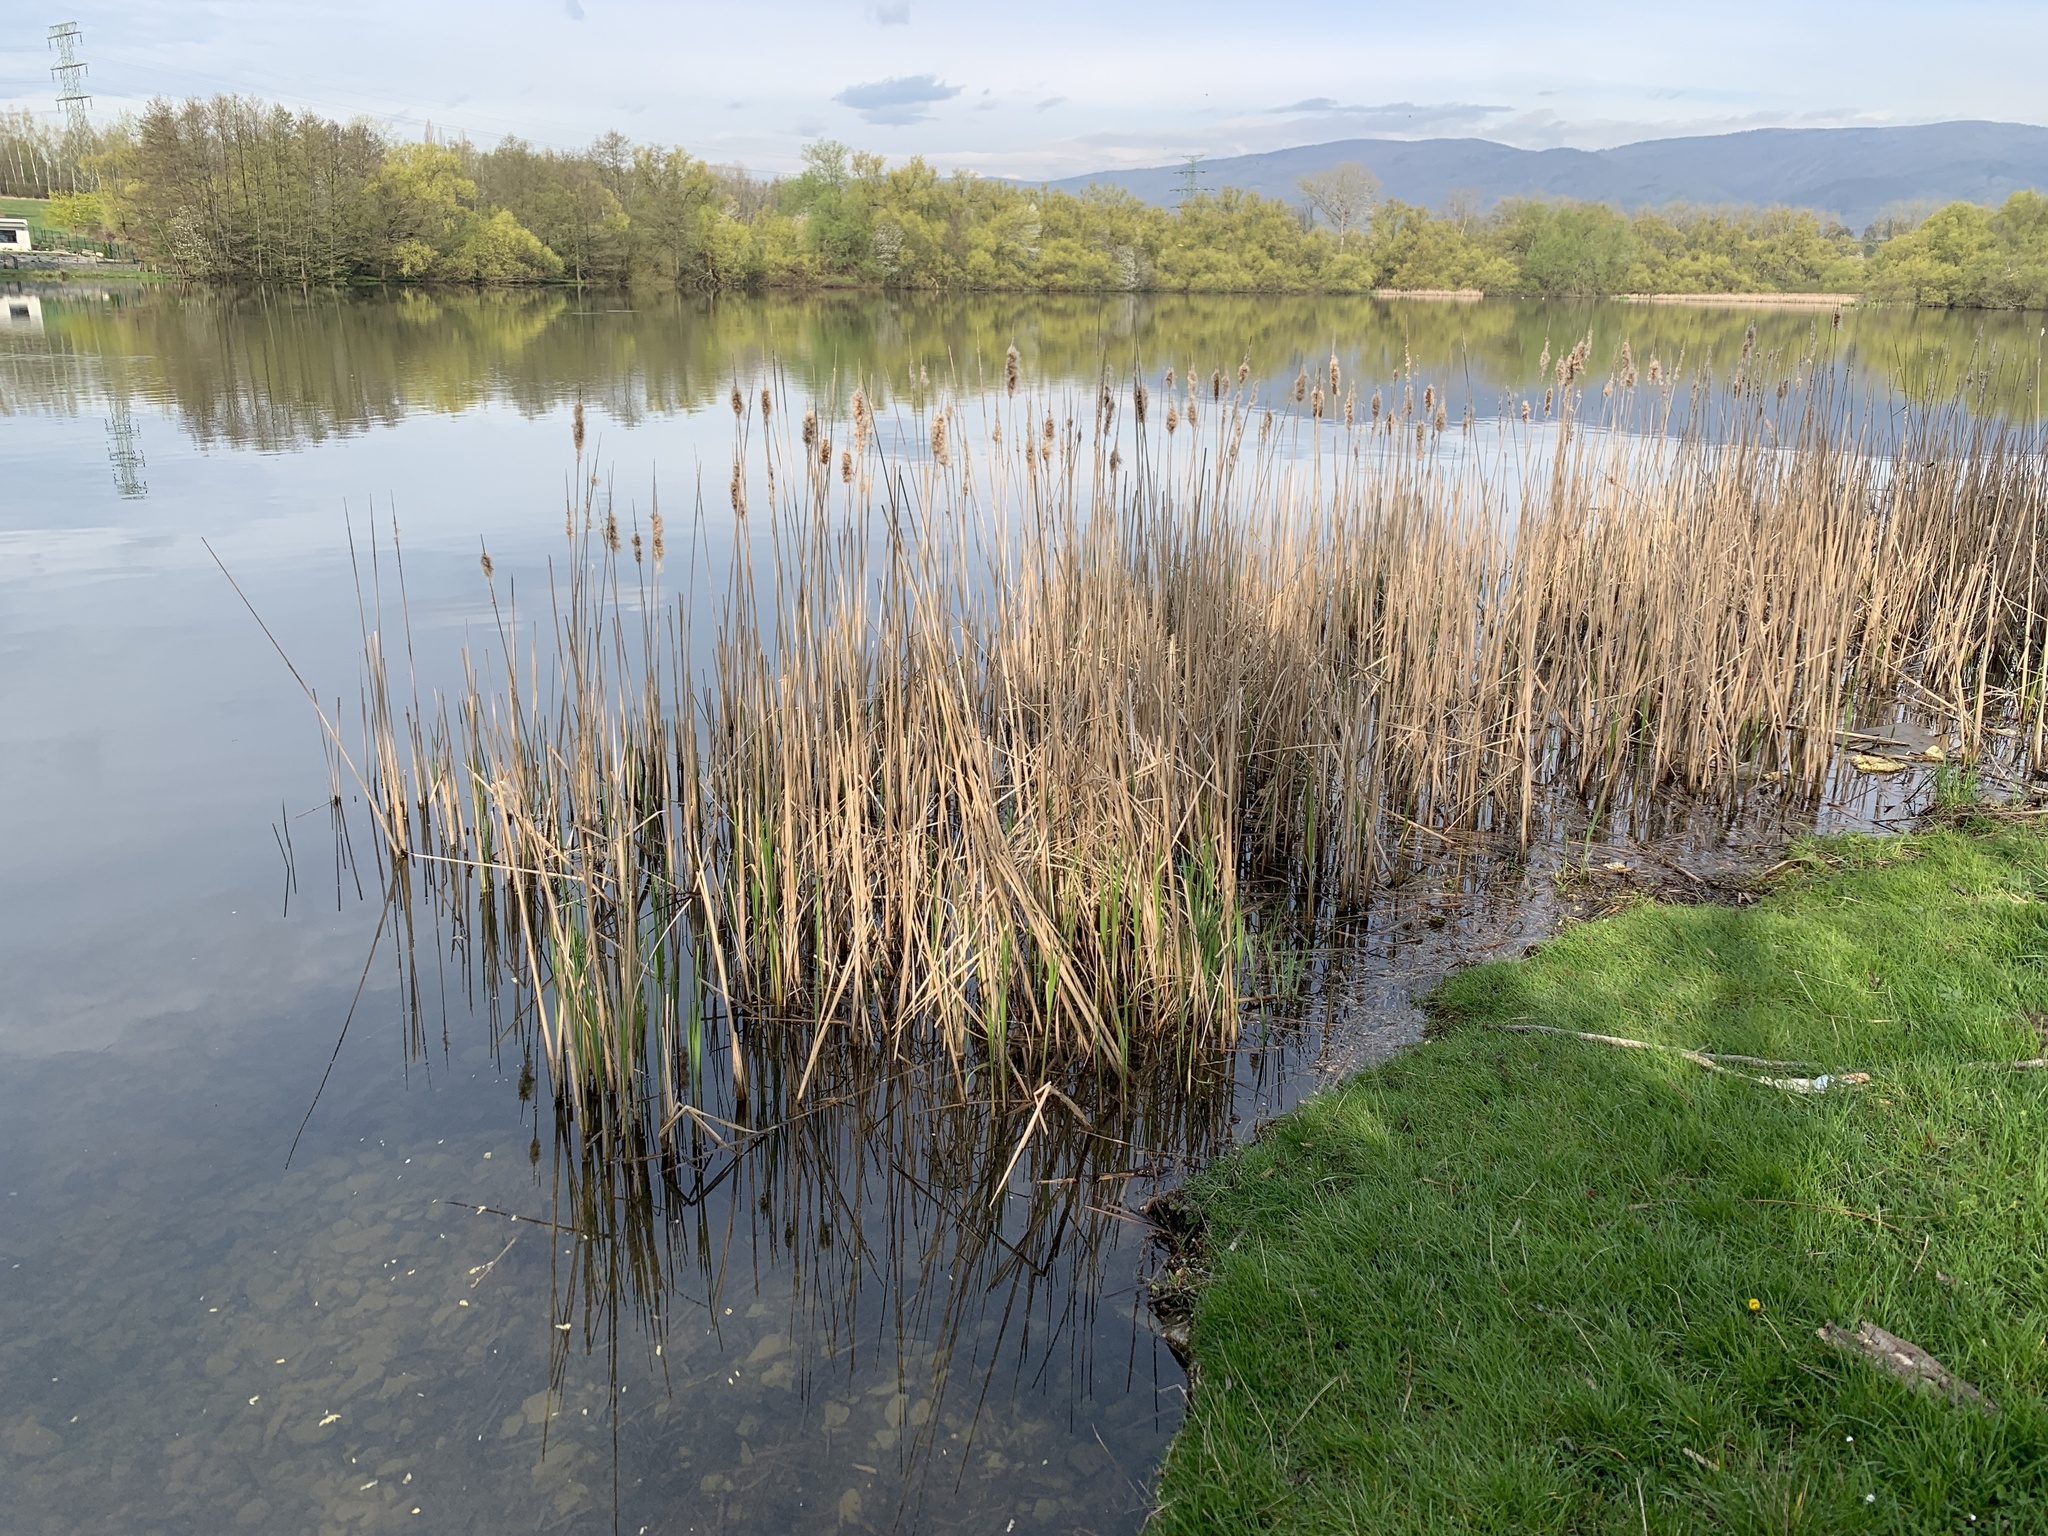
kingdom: Plantae
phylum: Tracheophyta
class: Liliopsida
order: Poales
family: Typhaceae
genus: Typha
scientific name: Typha angustifolia
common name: Lesser bulrush
